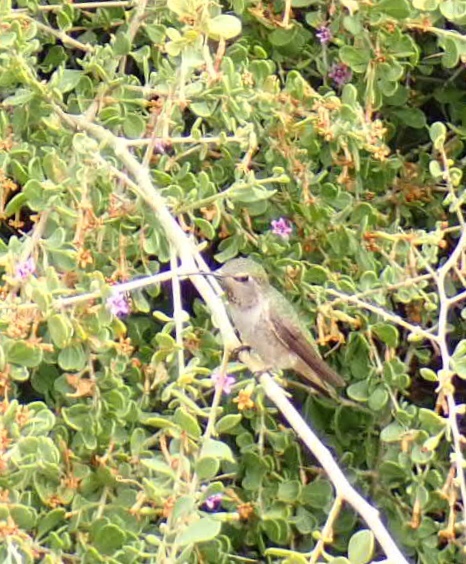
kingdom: Animalia
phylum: Chordata
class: Aves
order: Apodiformes
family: Trochilidae
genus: Calypte
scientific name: Calypte anna
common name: Anna's hummingbird
